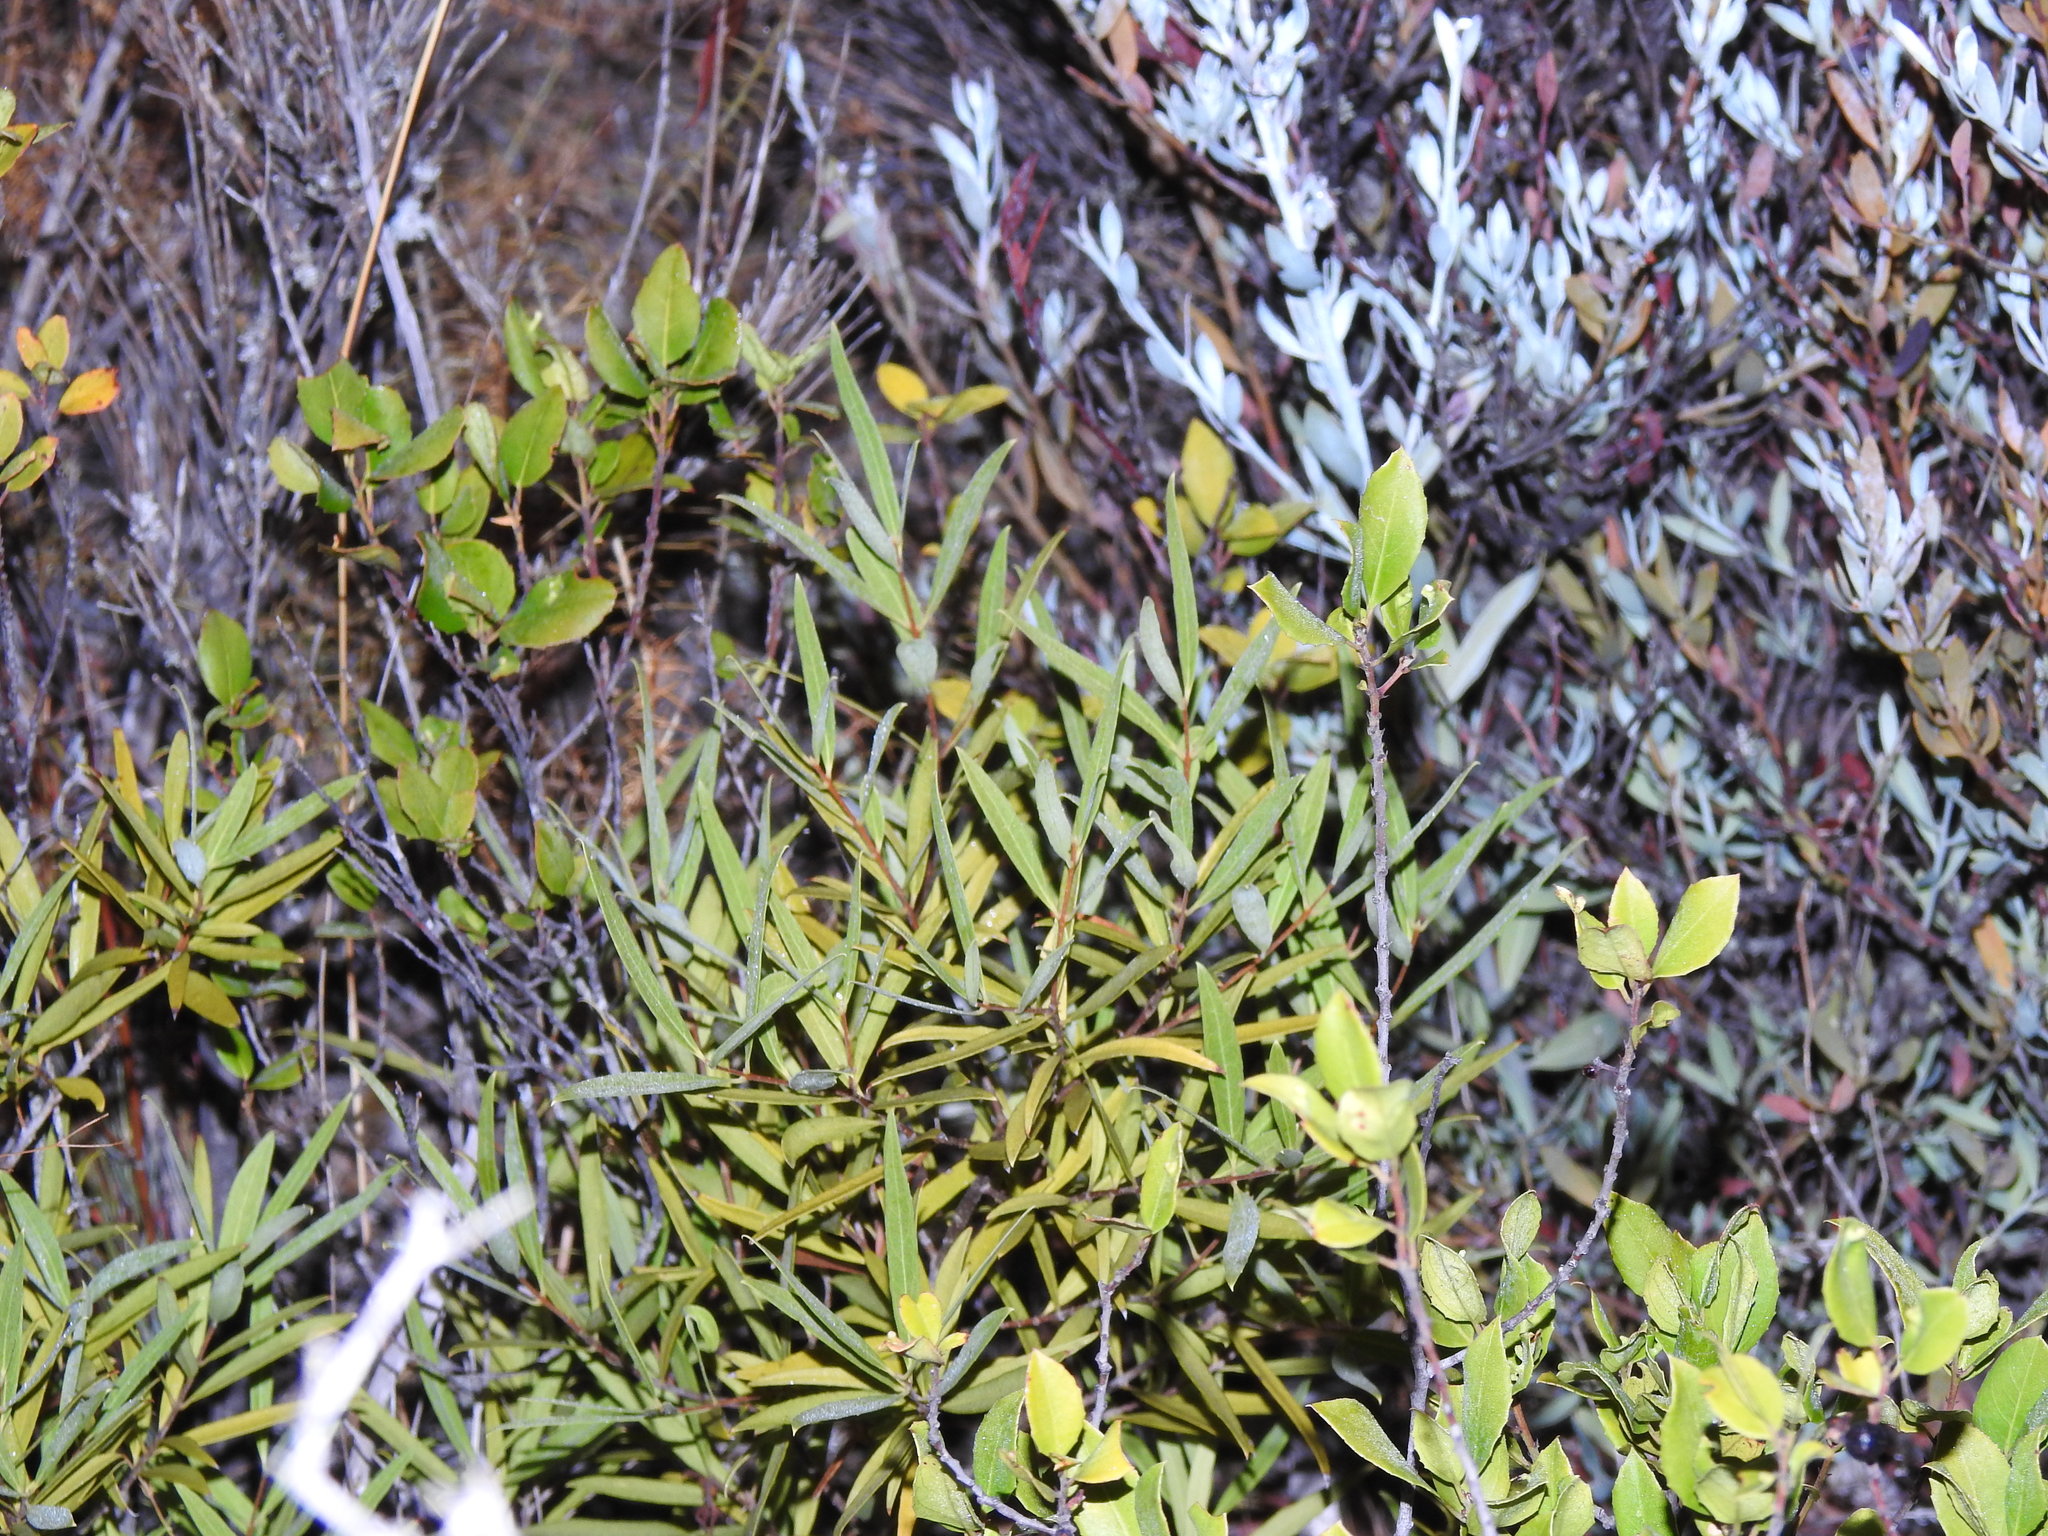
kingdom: Plantae
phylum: Tracheophyta
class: Magnoliopsida
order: Lamiales
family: Oleaceae
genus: Phillyrea
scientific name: Phillyrea angustifolia
